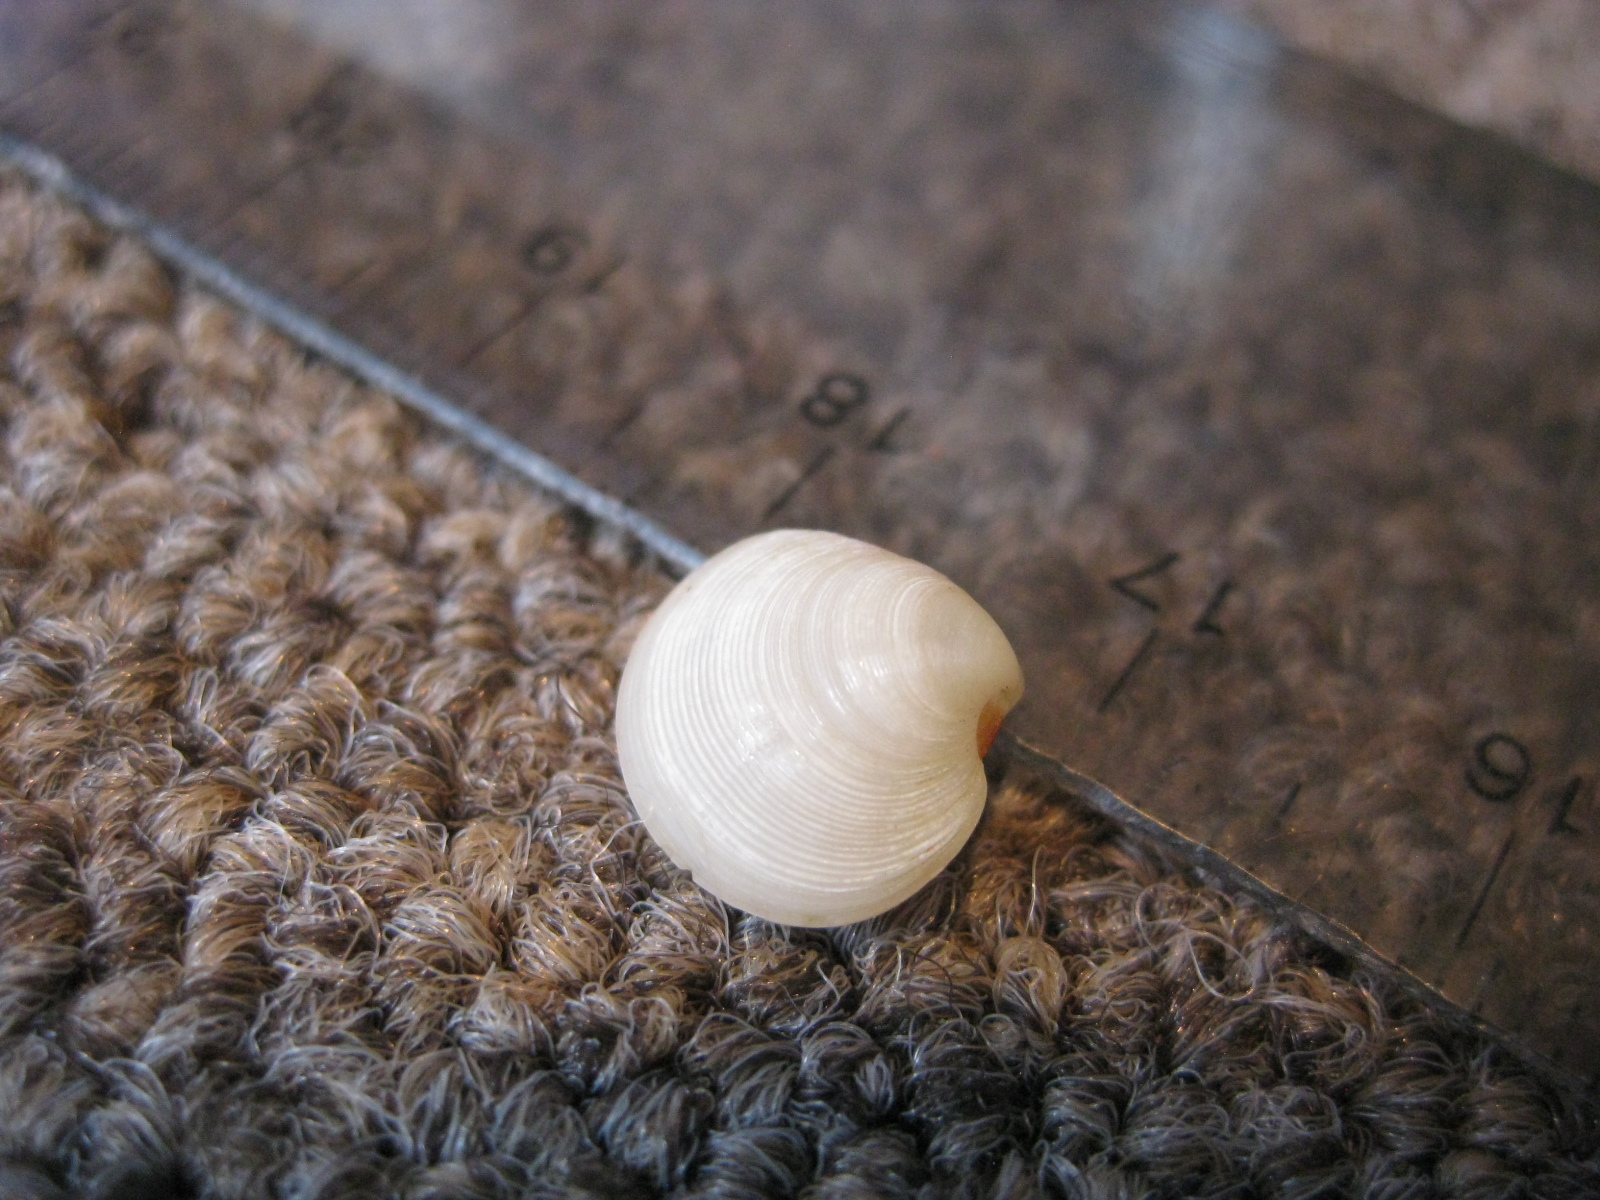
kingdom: Animalia
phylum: Mollusca
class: Bivalvia
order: Venerida
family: Veneridae
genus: Dosinia
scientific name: Dosinia subrosea
